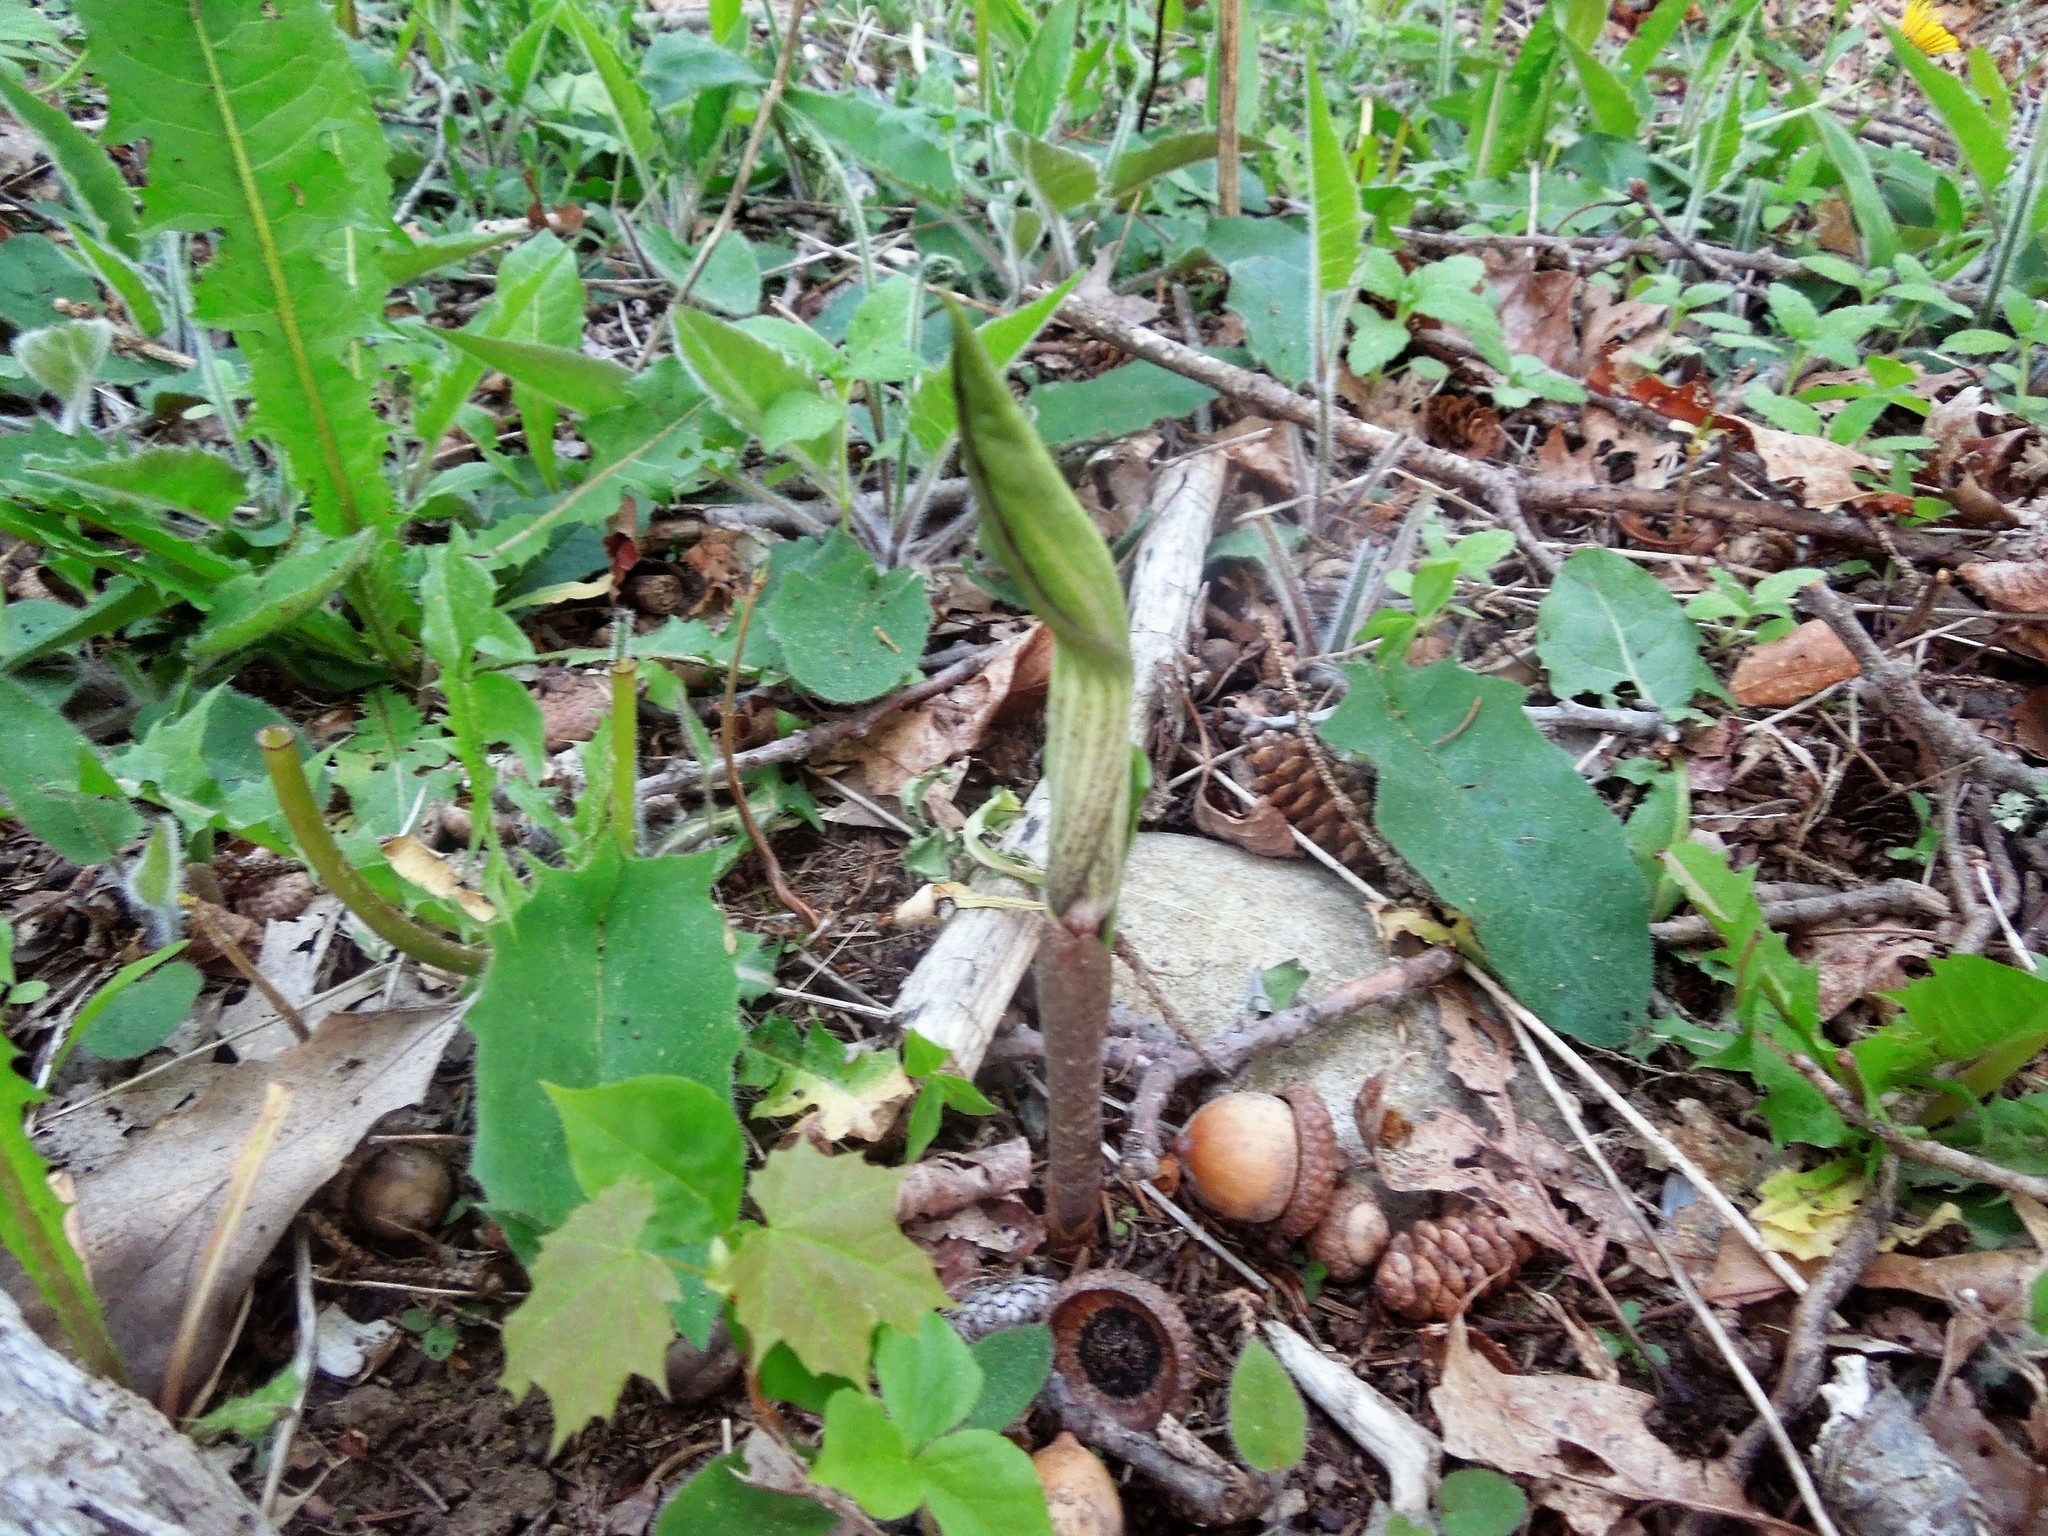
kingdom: Plantae
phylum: Tracheophyta
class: Liliopsida
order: Alismatales
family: Araceae
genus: Arisaema
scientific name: Arisaema triphyllum
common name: Jack-in-the-pulpit
